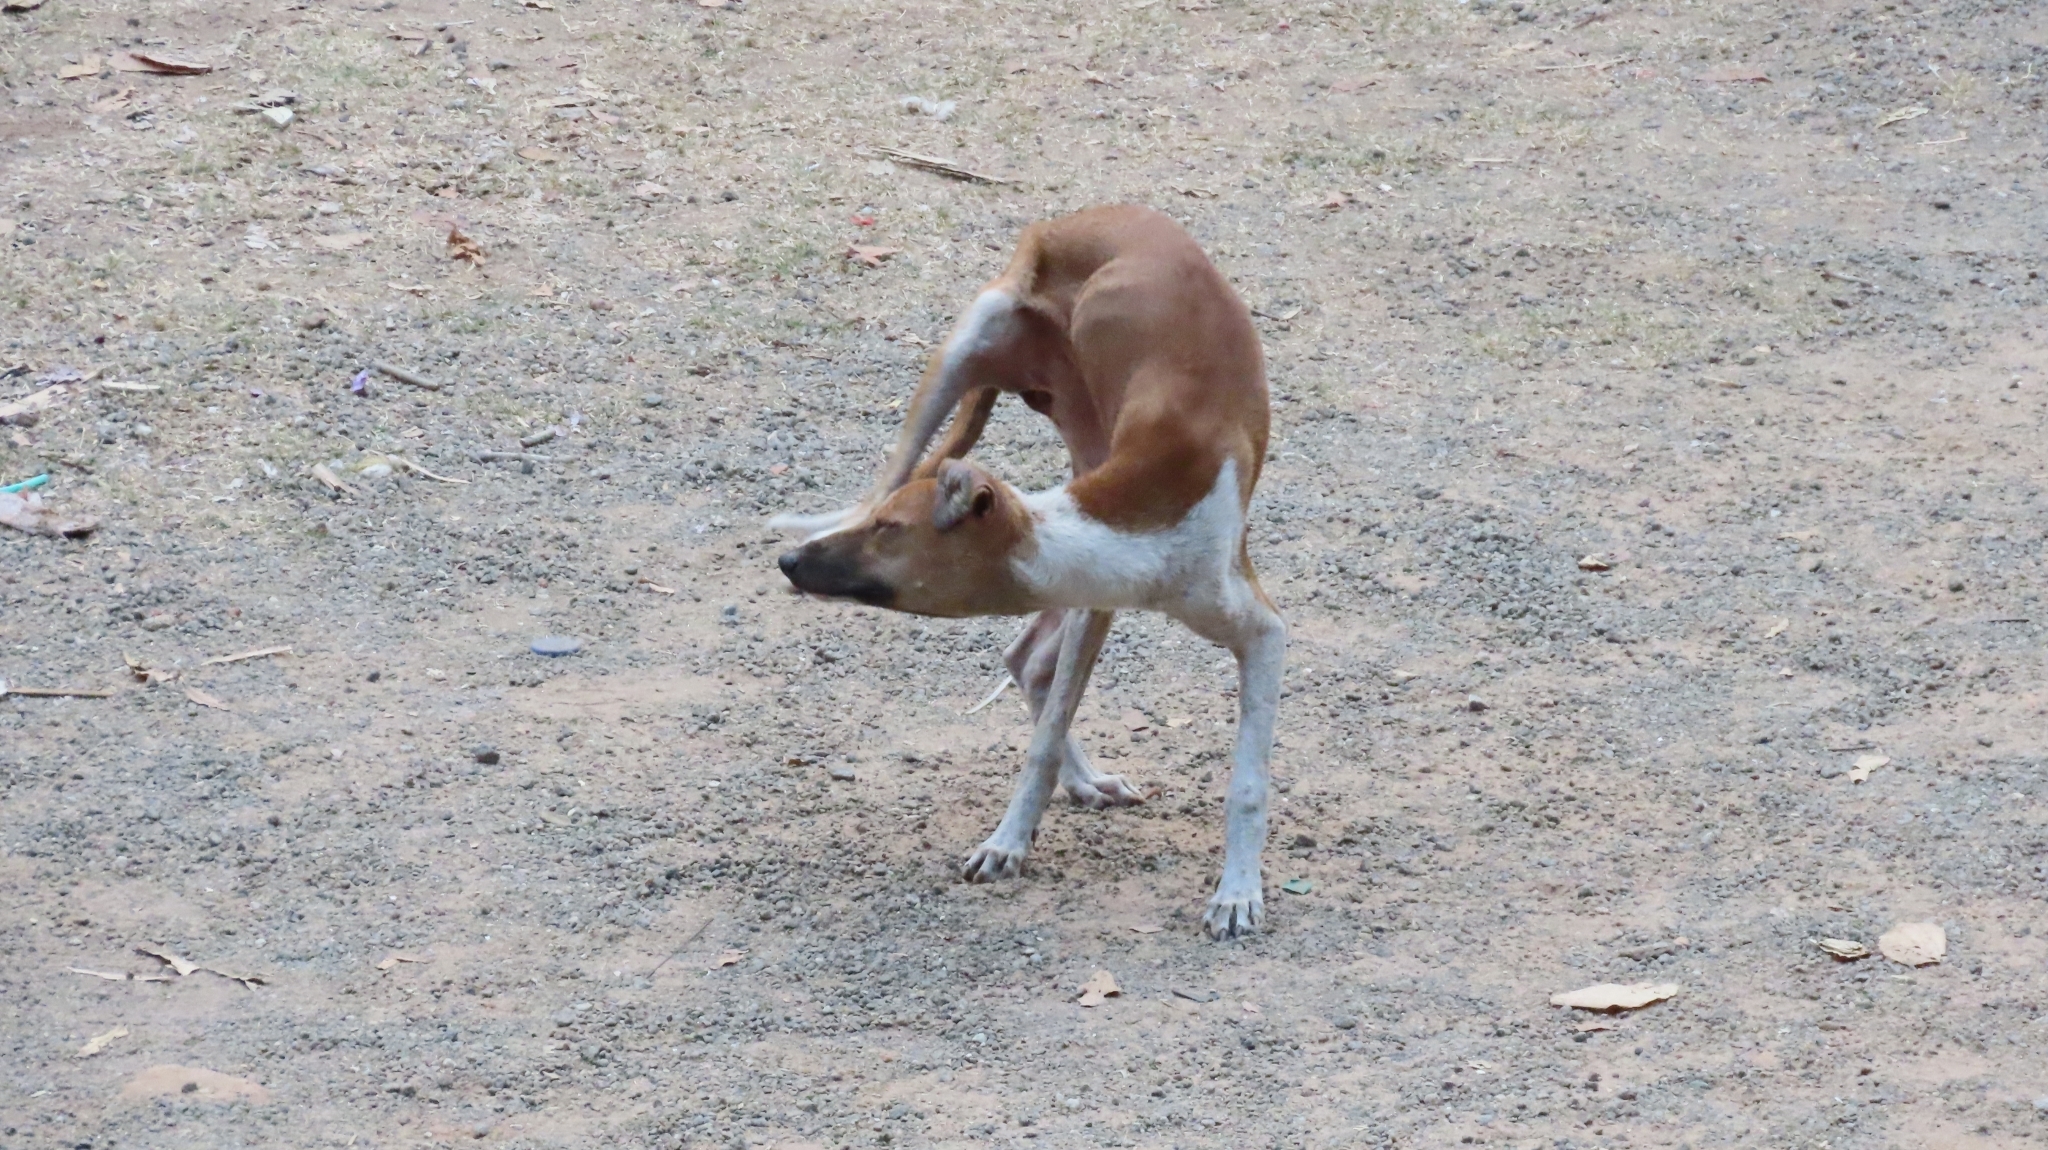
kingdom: Animalia
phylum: Chordata
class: Mammalia
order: Carnivora
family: Canidae
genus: Canis
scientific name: Canis lupus
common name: Gray wolf
